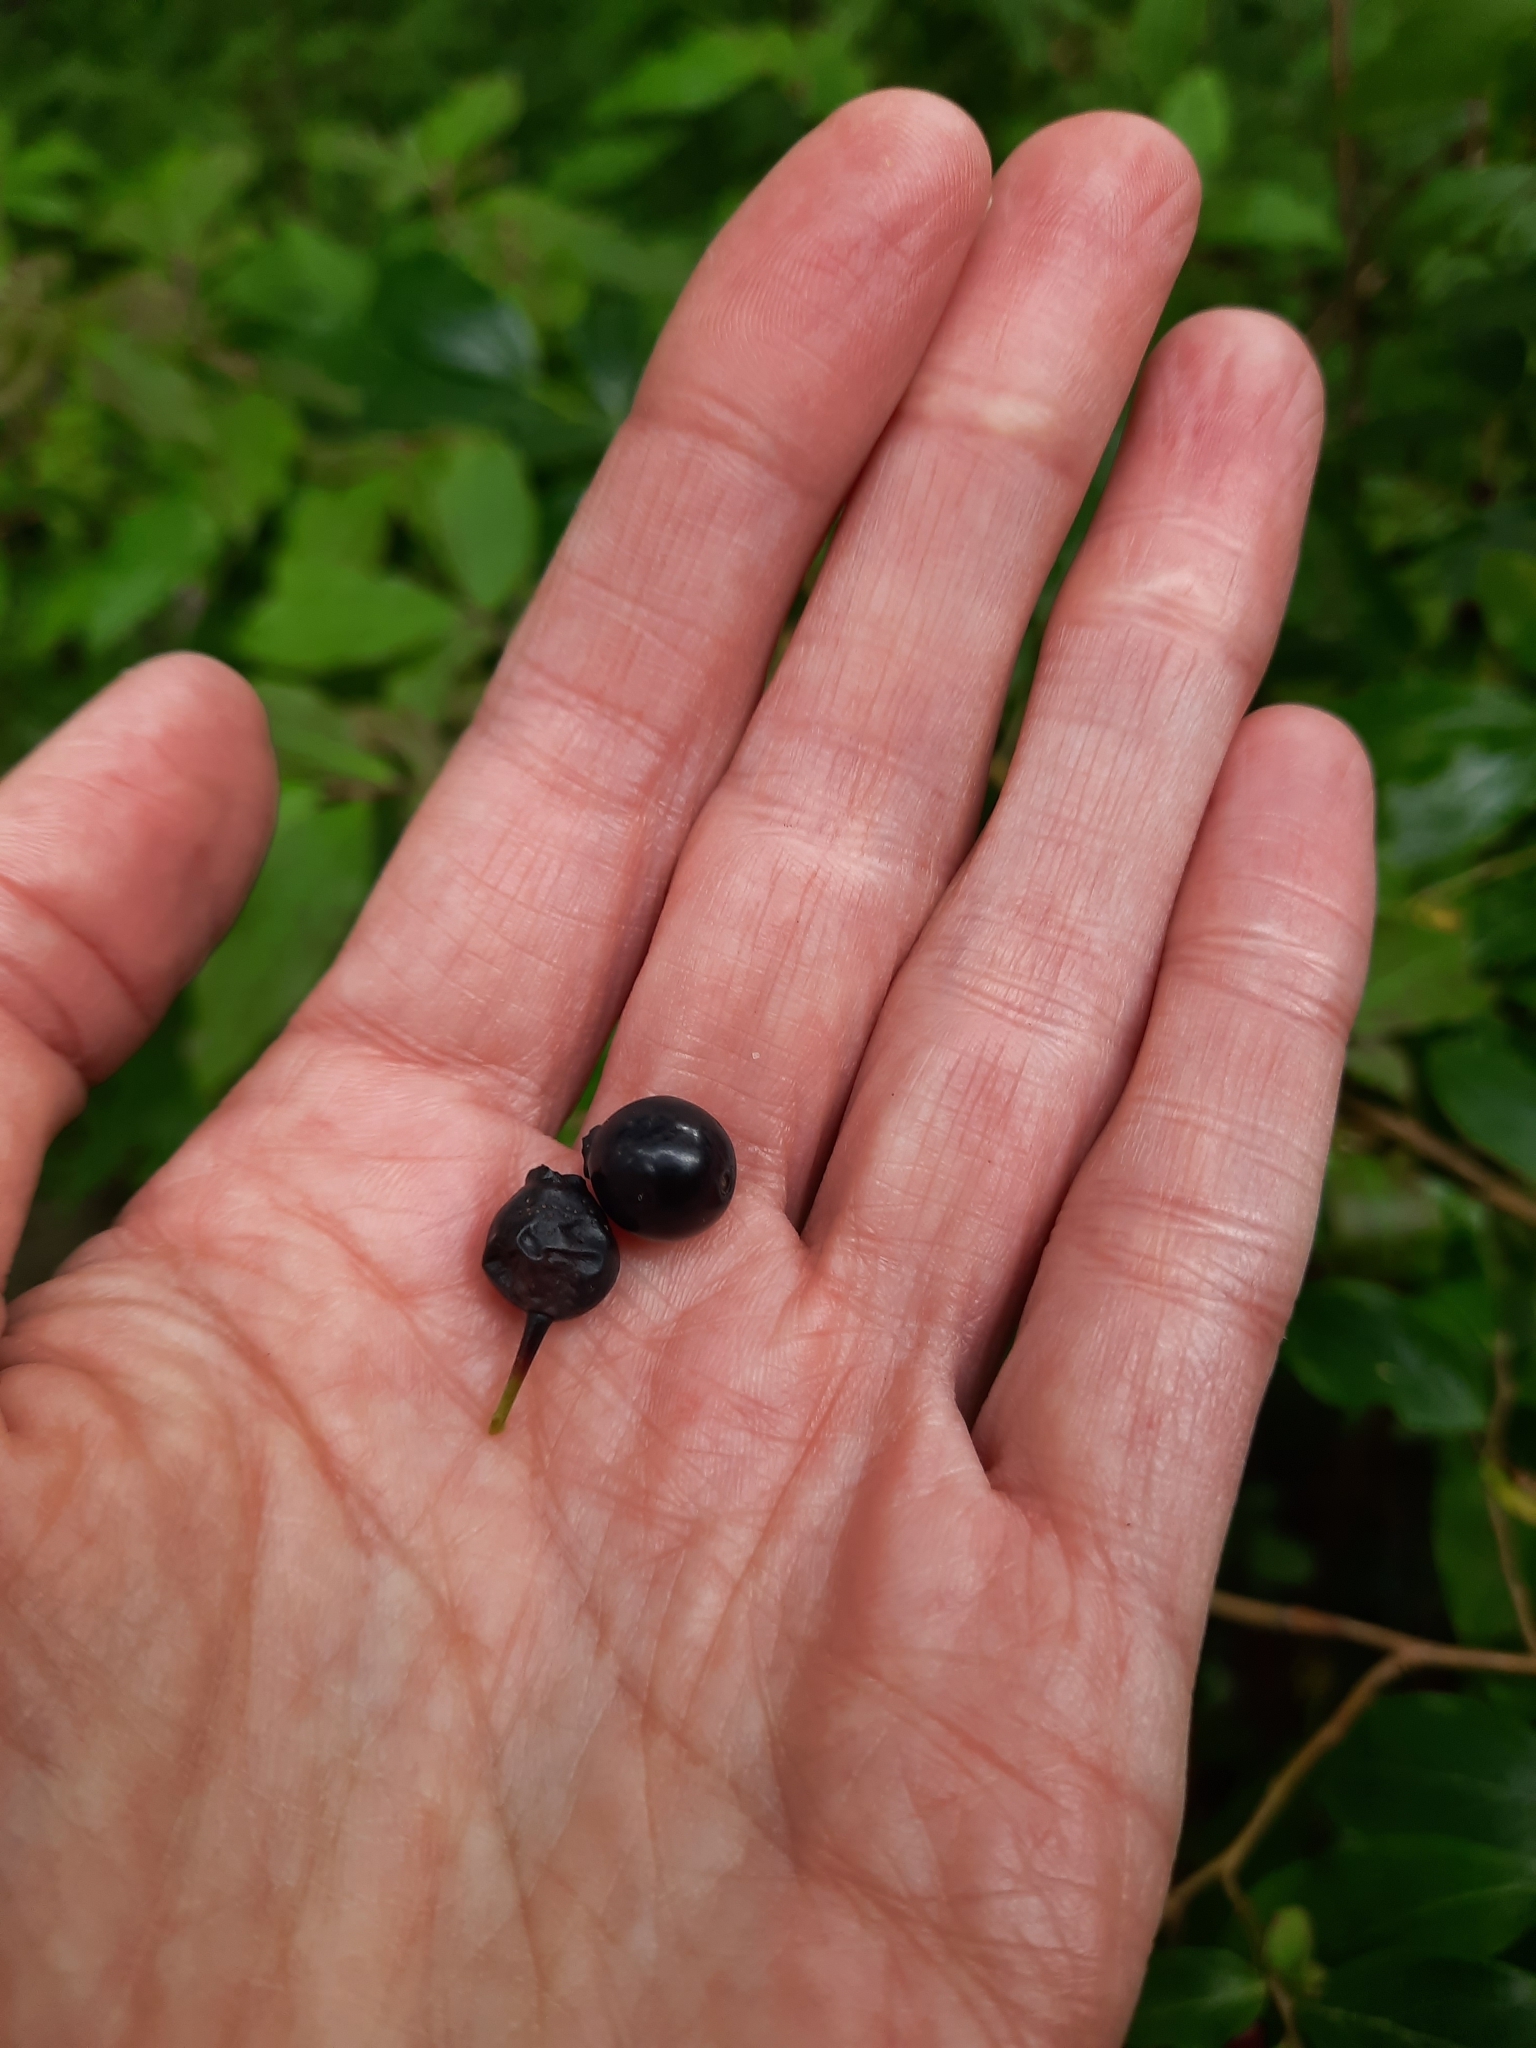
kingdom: Plantae
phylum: Tracheophyta
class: Magnoliopsida
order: Ericales
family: Ericaceae
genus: Vaccinium
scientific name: Vaccinium arctostaphylos
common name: Caucasian whortleberry
